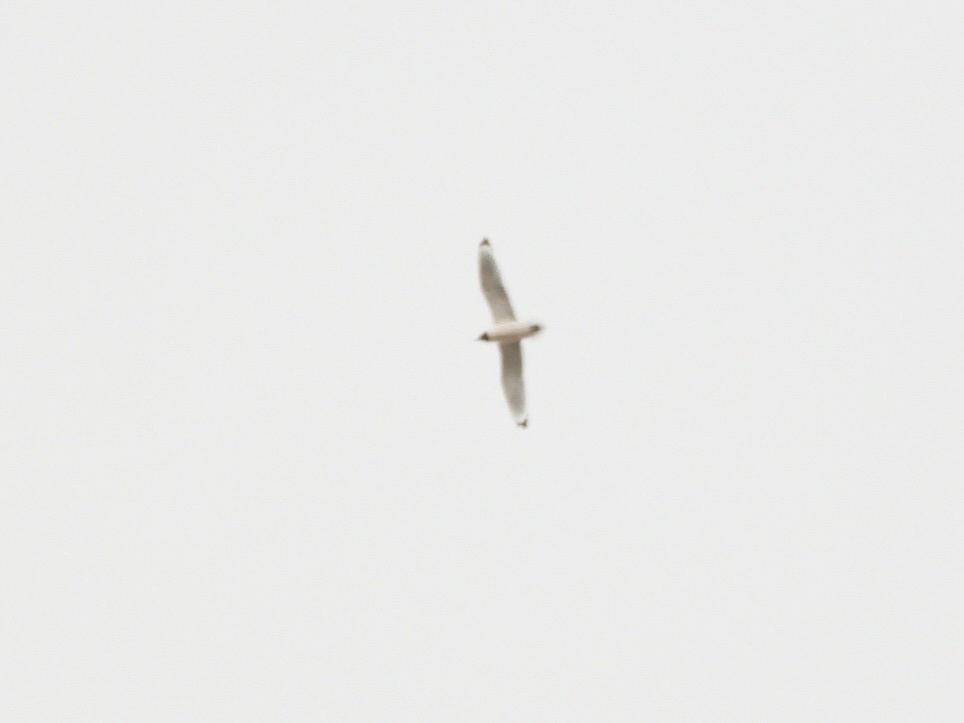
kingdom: Animalia
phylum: Chordata
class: Aves
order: Charadriiformes
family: Laridae
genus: Leucophaeus
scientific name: Leucophaeus pipixcan
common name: Franklin's gull
